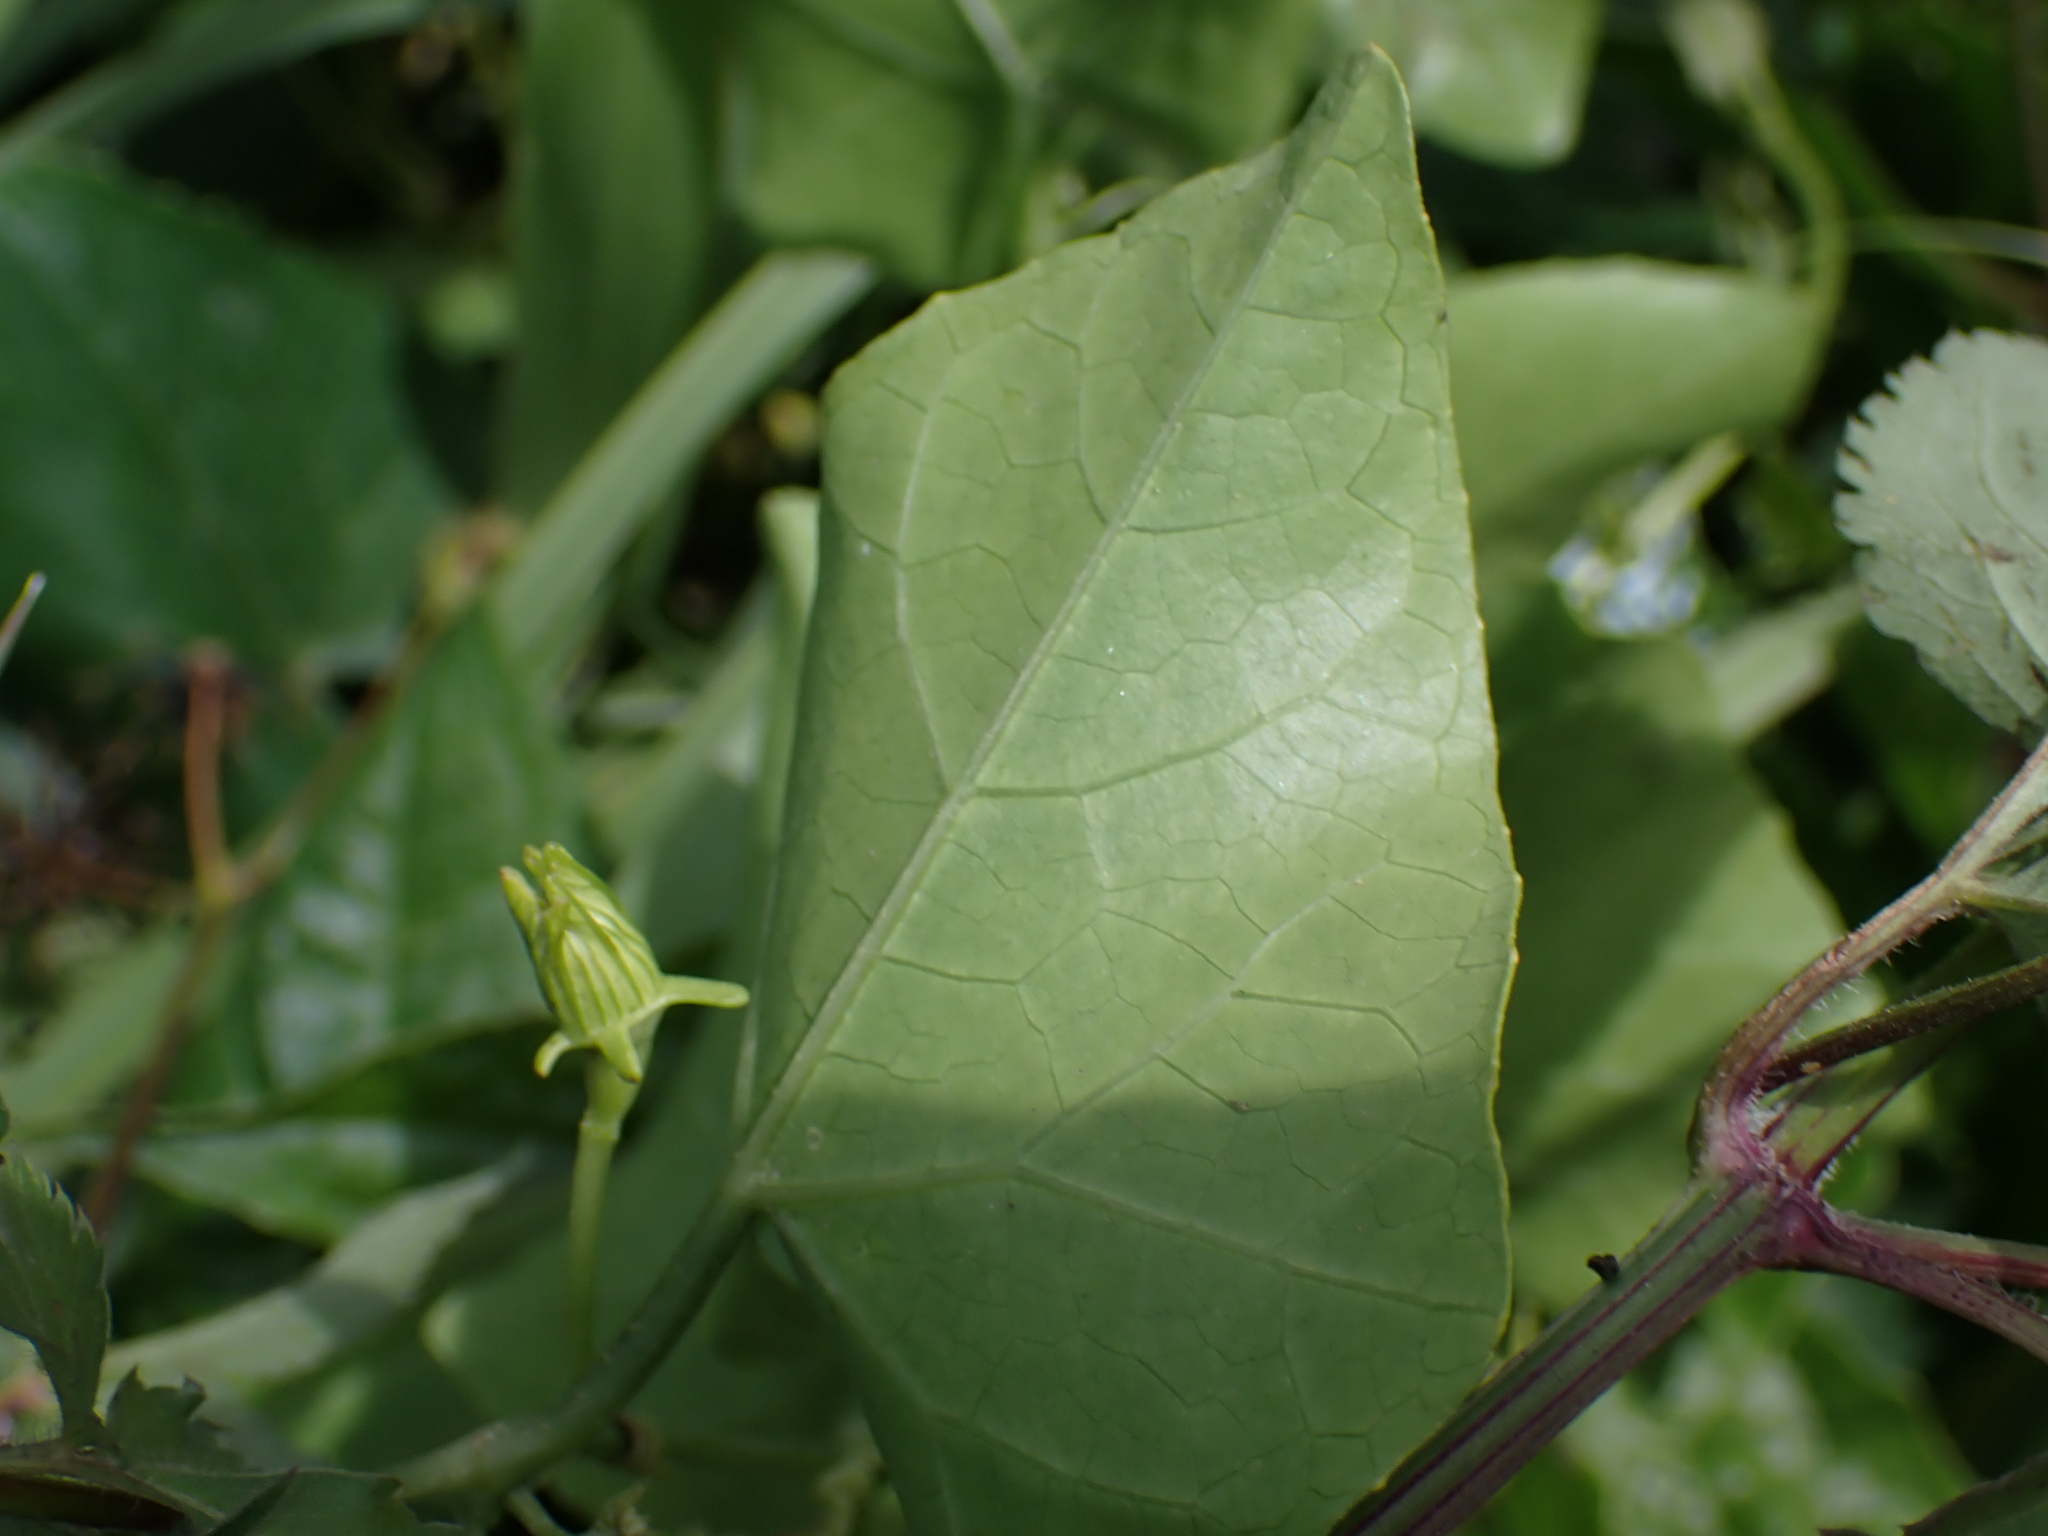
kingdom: Plantae
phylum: Tracheophyta
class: Magnoliopsida
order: Cucurbitales
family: Cucurbitaceae
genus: Coccinia
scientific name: Coccinia grandis
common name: Ivy gourd
